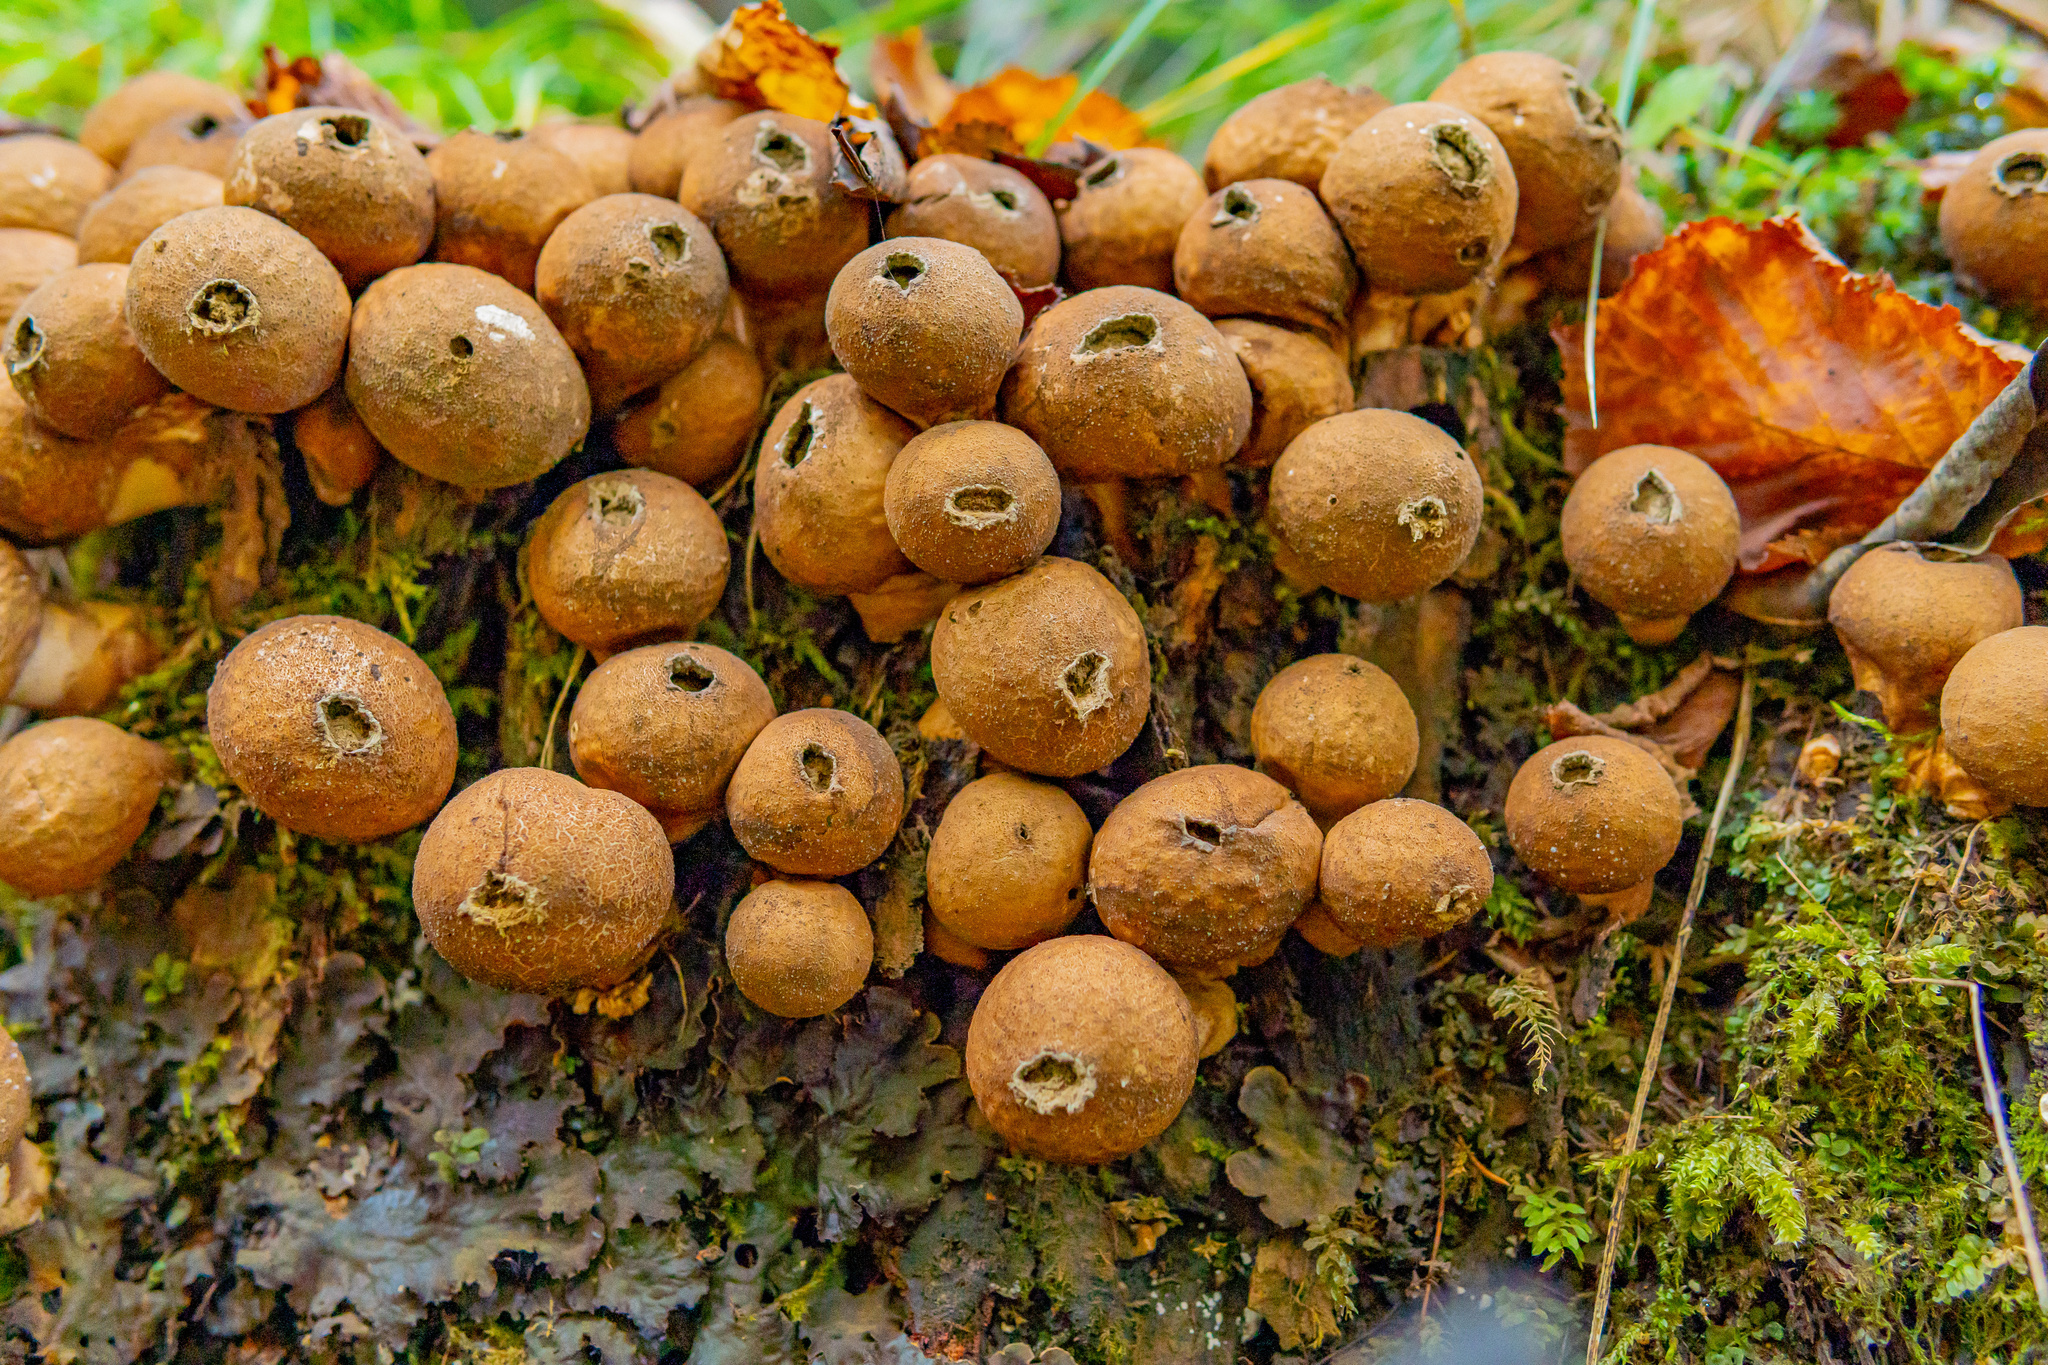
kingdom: Fungi
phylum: Basidiomycota
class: Agaricomycetes
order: Agaricales
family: Lycoperdaceae
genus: Apioperdon
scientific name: Apioperdon pyriforme
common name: Pear-shaped puffball
